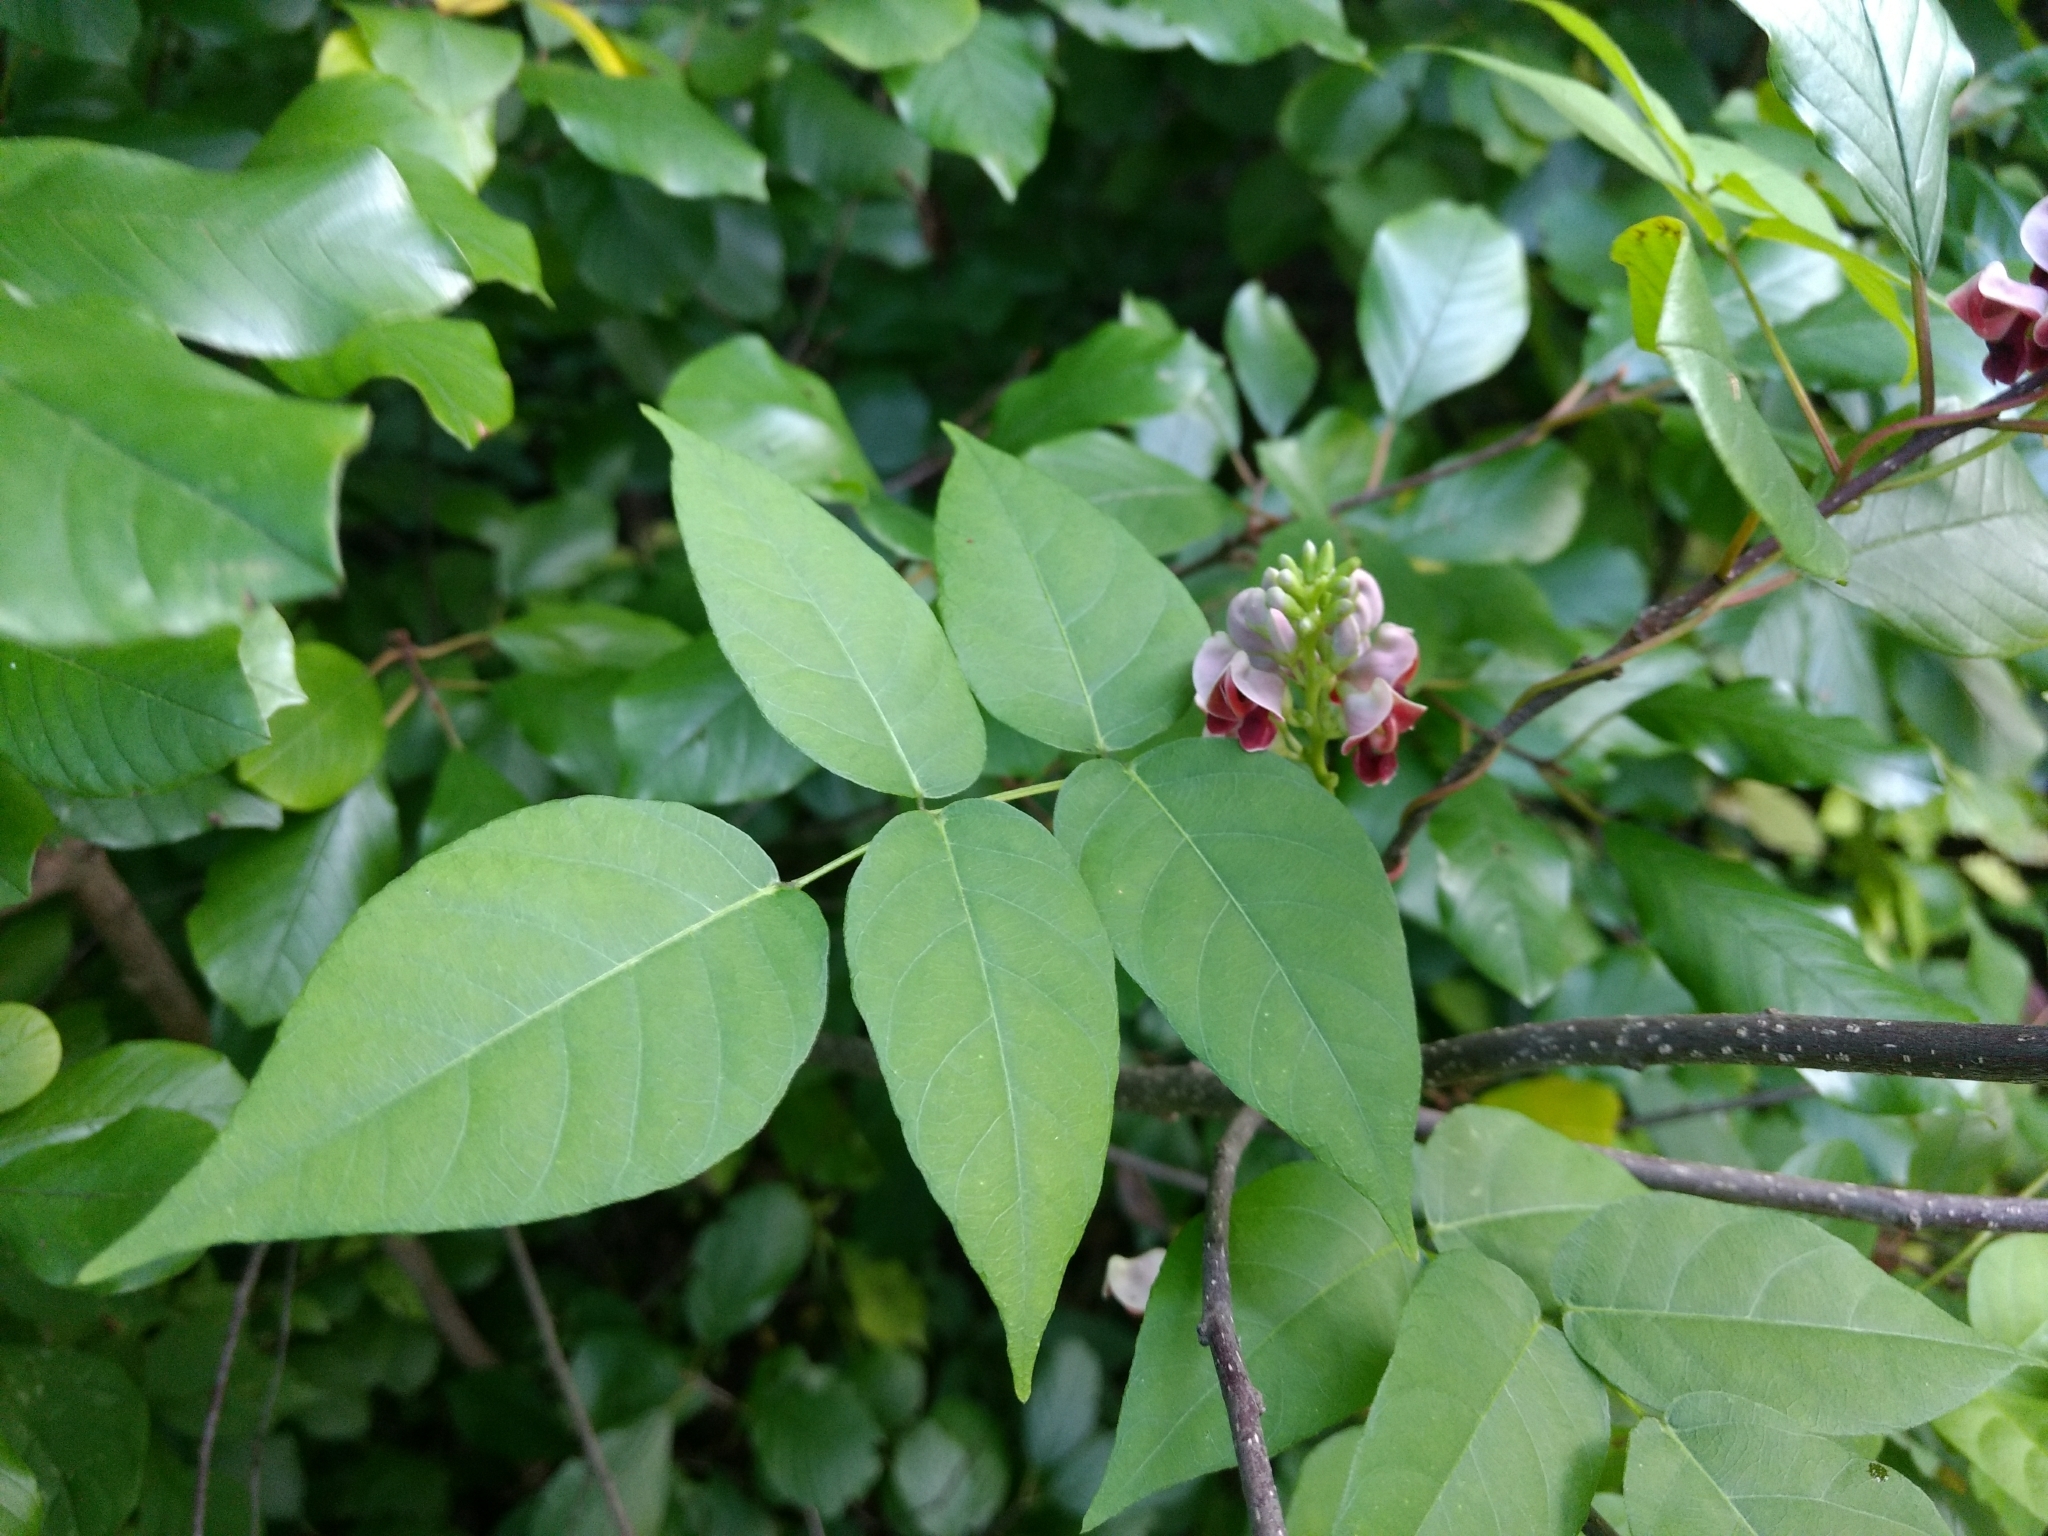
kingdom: Plantae
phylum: Tracheophyta
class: Magnoliopsida
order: Fabales
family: Fabaceae
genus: Apios
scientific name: Apios americana
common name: American potato-bean
